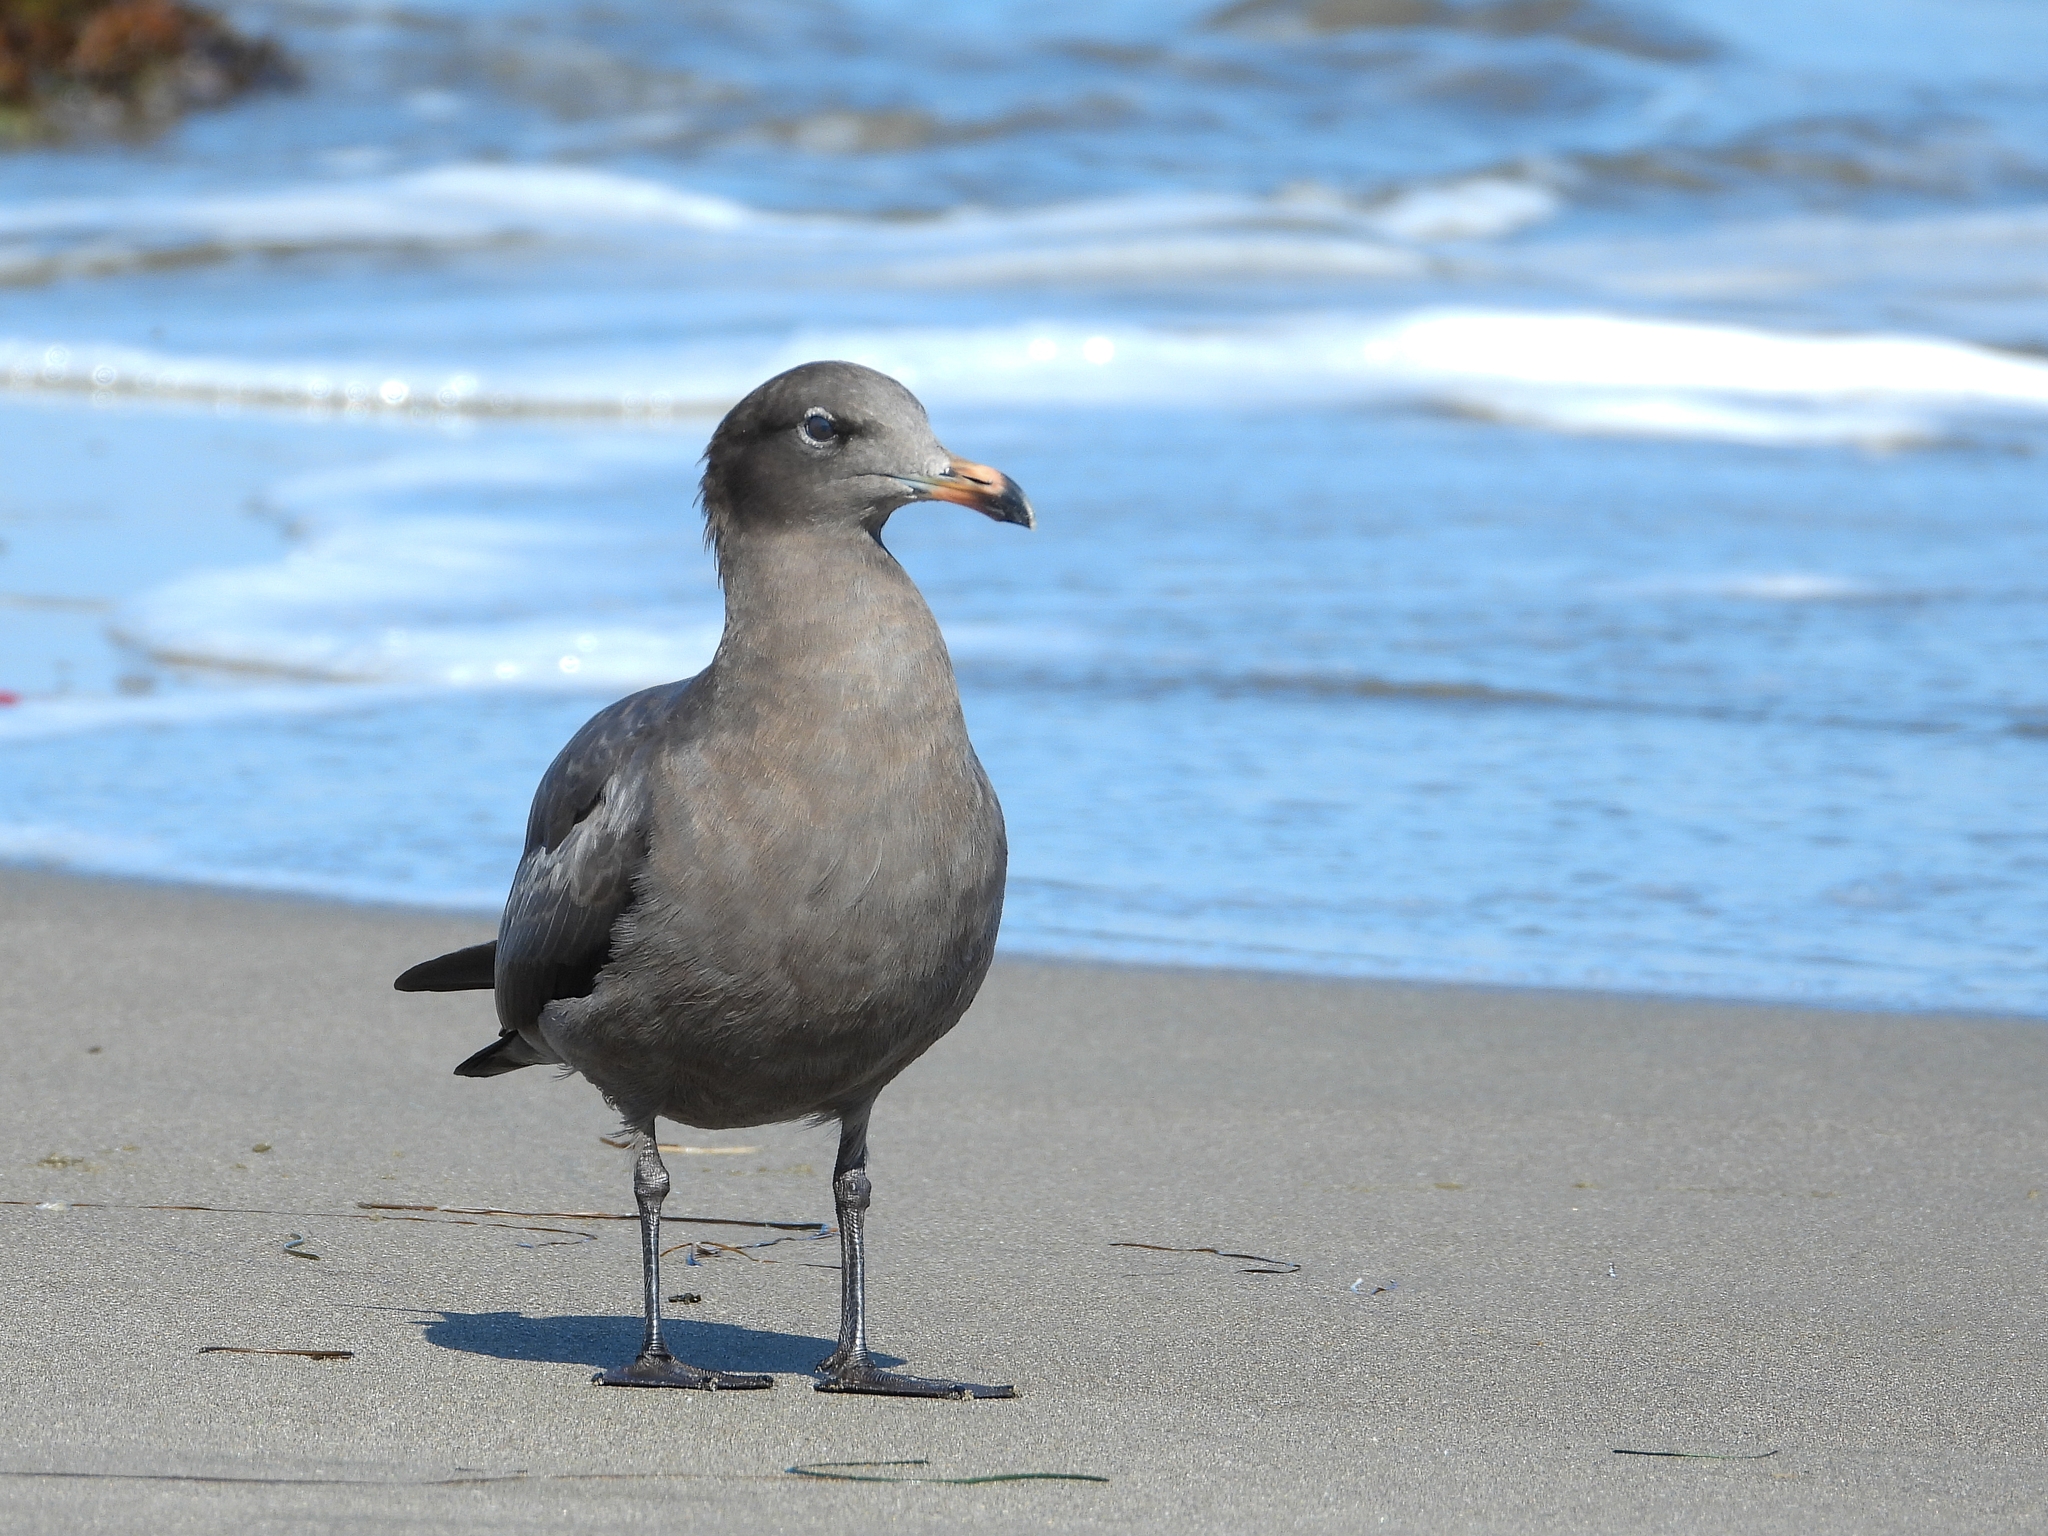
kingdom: Animalia
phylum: Chordata
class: Aves
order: Charadriiformes
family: Laridae
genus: Larus
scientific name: Larus heermanni
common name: Heermann's gull
